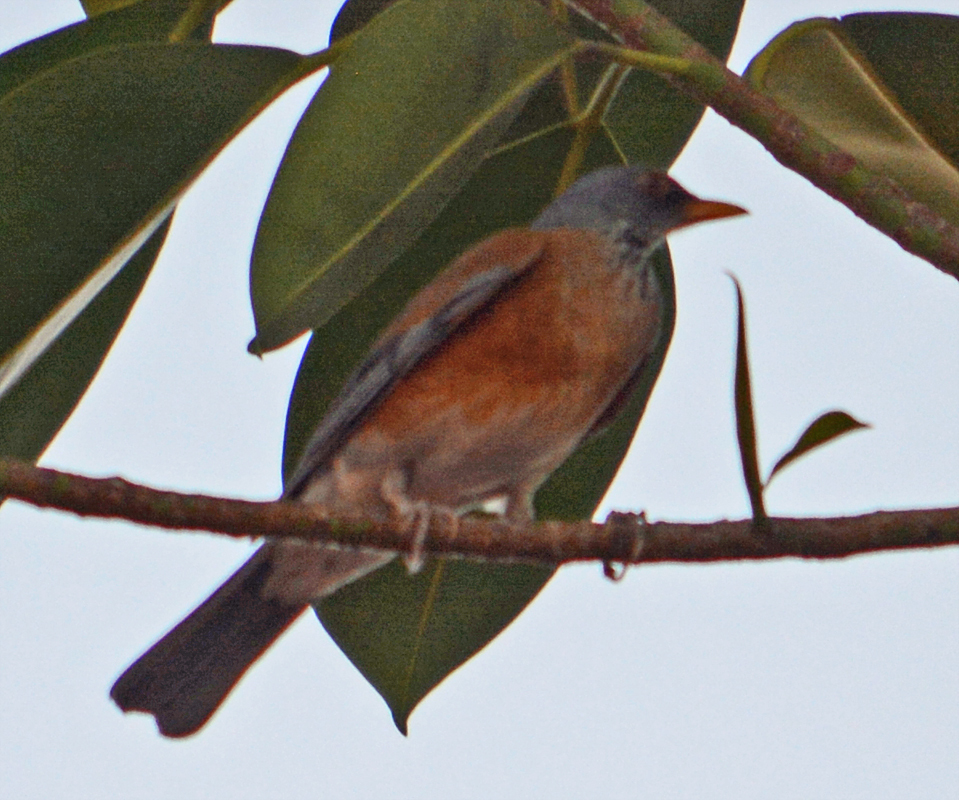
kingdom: Animalia
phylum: Chordata
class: Aves
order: Passeriformes
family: Turdidae
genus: Turdus
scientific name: Turdus rufopalliatus
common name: Rufous-backed robin
